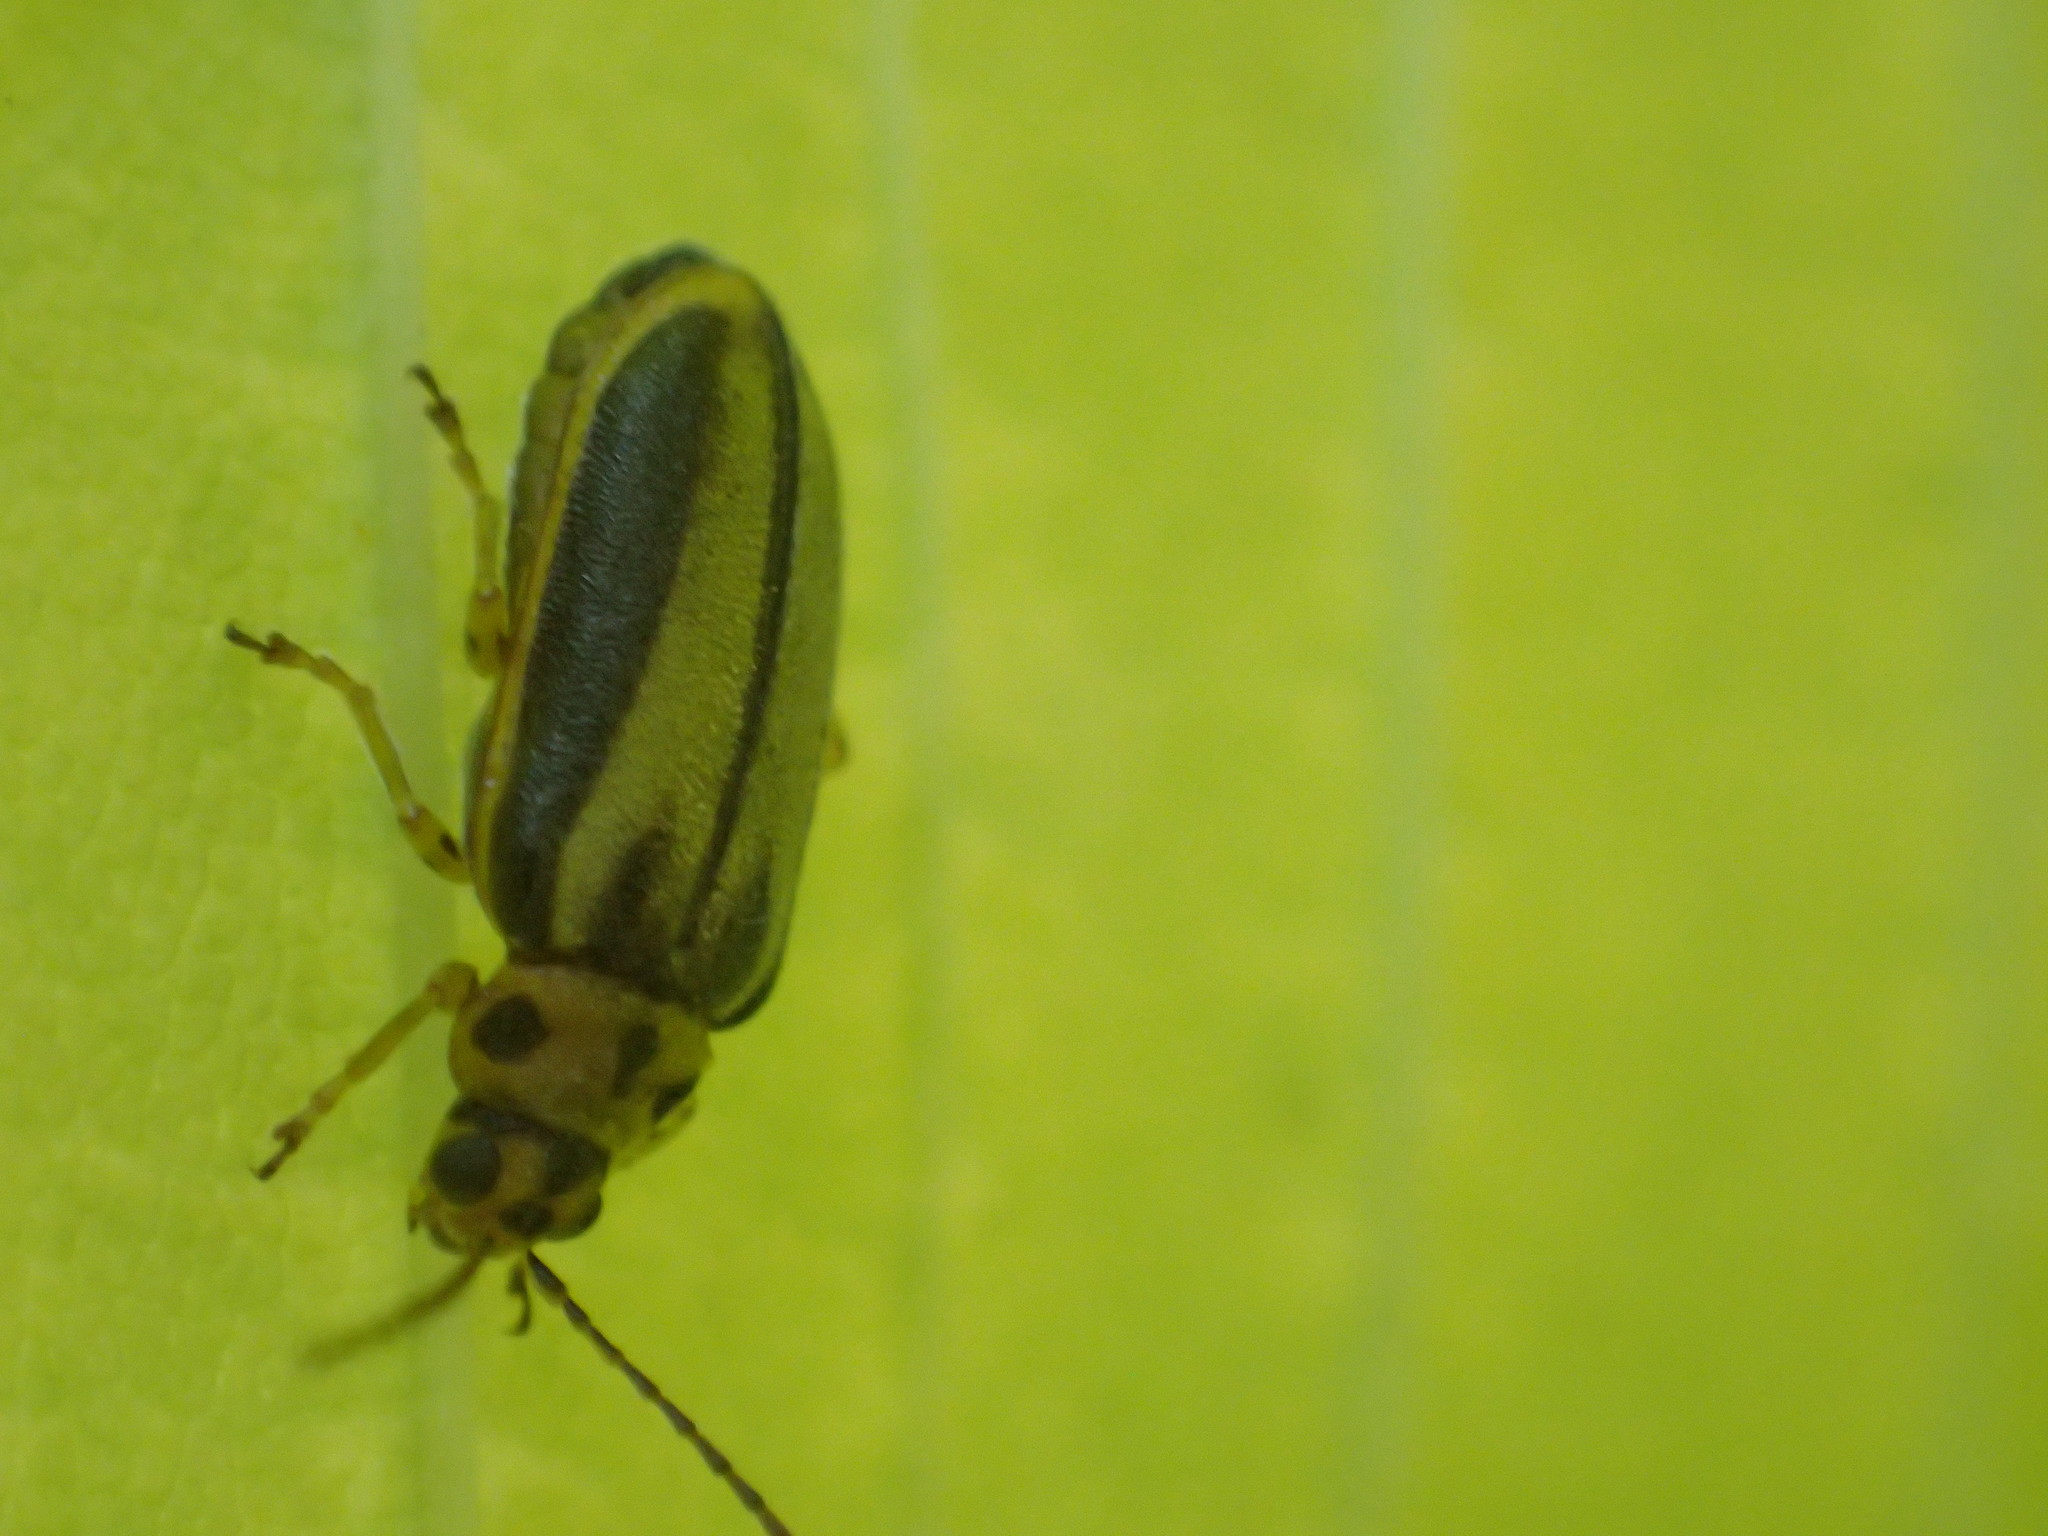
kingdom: Animalia
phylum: Arthropoda
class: Insecta
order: Coleoptera
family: Chrysomelidae
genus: Xanthogaleruca
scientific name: Xanthogaleruca luteola
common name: Elm leaf beetle
